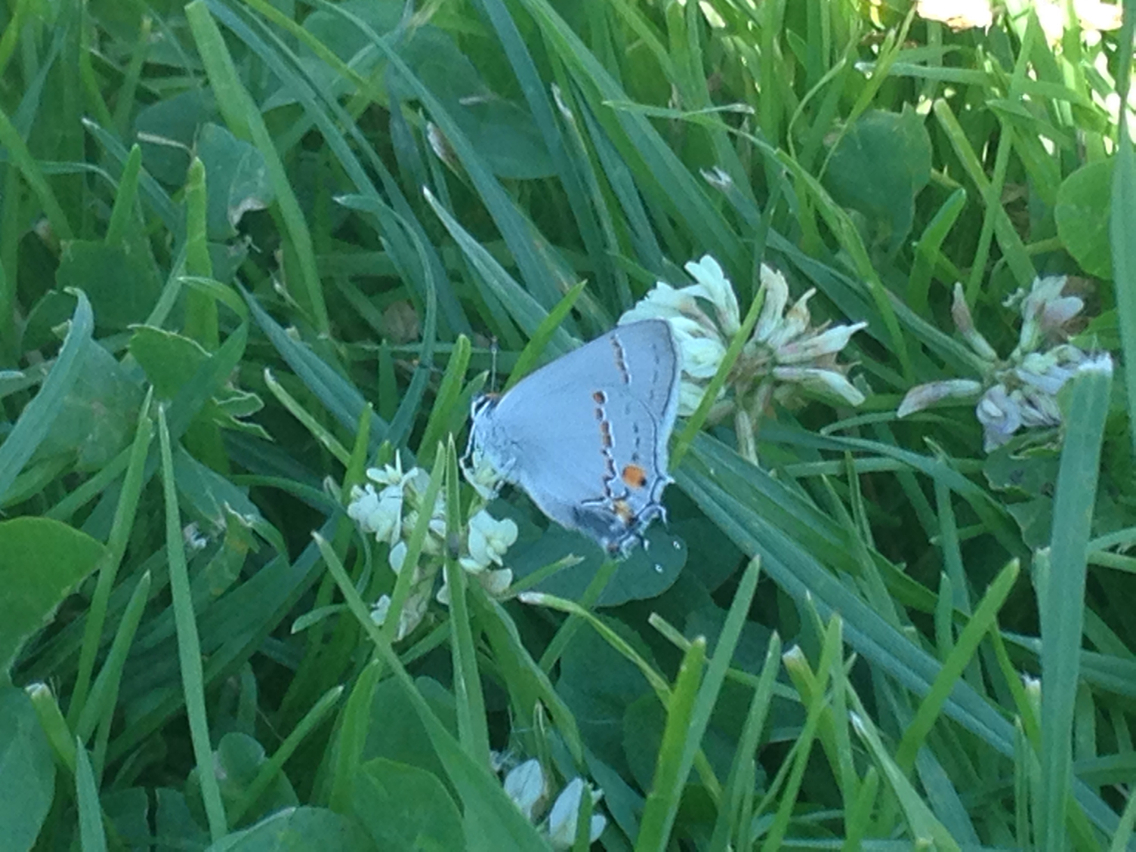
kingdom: Animalia
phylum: Arthropoda
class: Insecta
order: Lepidoptera
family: Lycaenidae
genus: Thecla
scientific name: Thecla pudica
